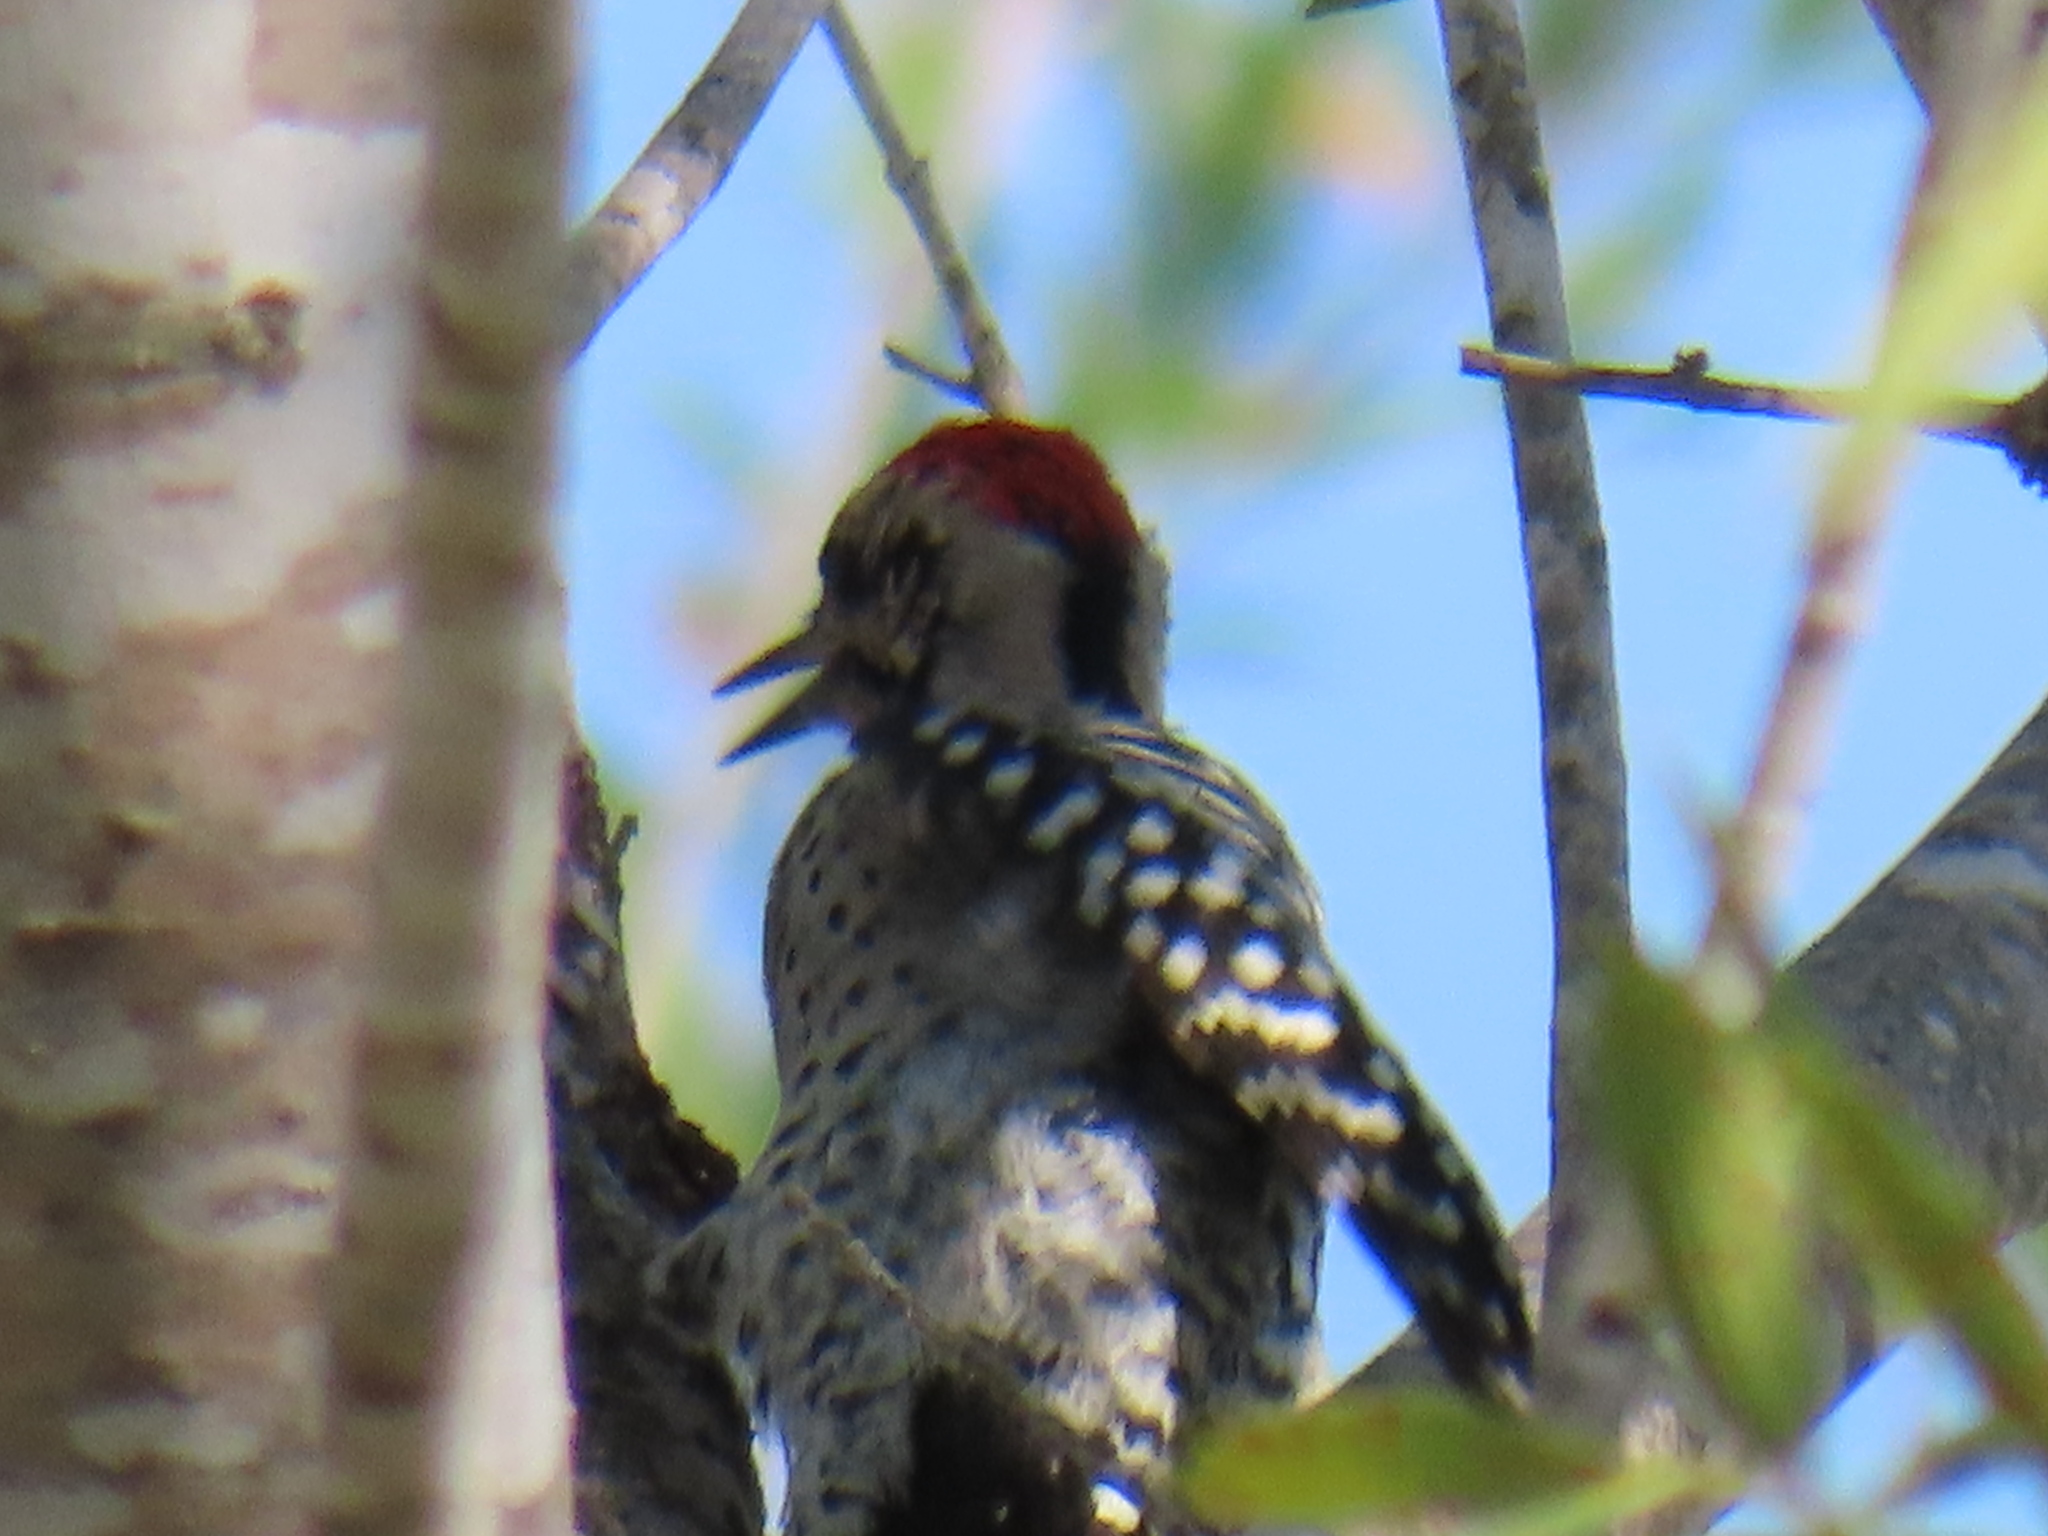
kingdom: Animalia
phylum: Chordata
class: Aves
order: Piciformes
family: Picidae
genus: Dryobates
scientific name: Dryobates scalaris
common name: Ladder-backed woodpecker
